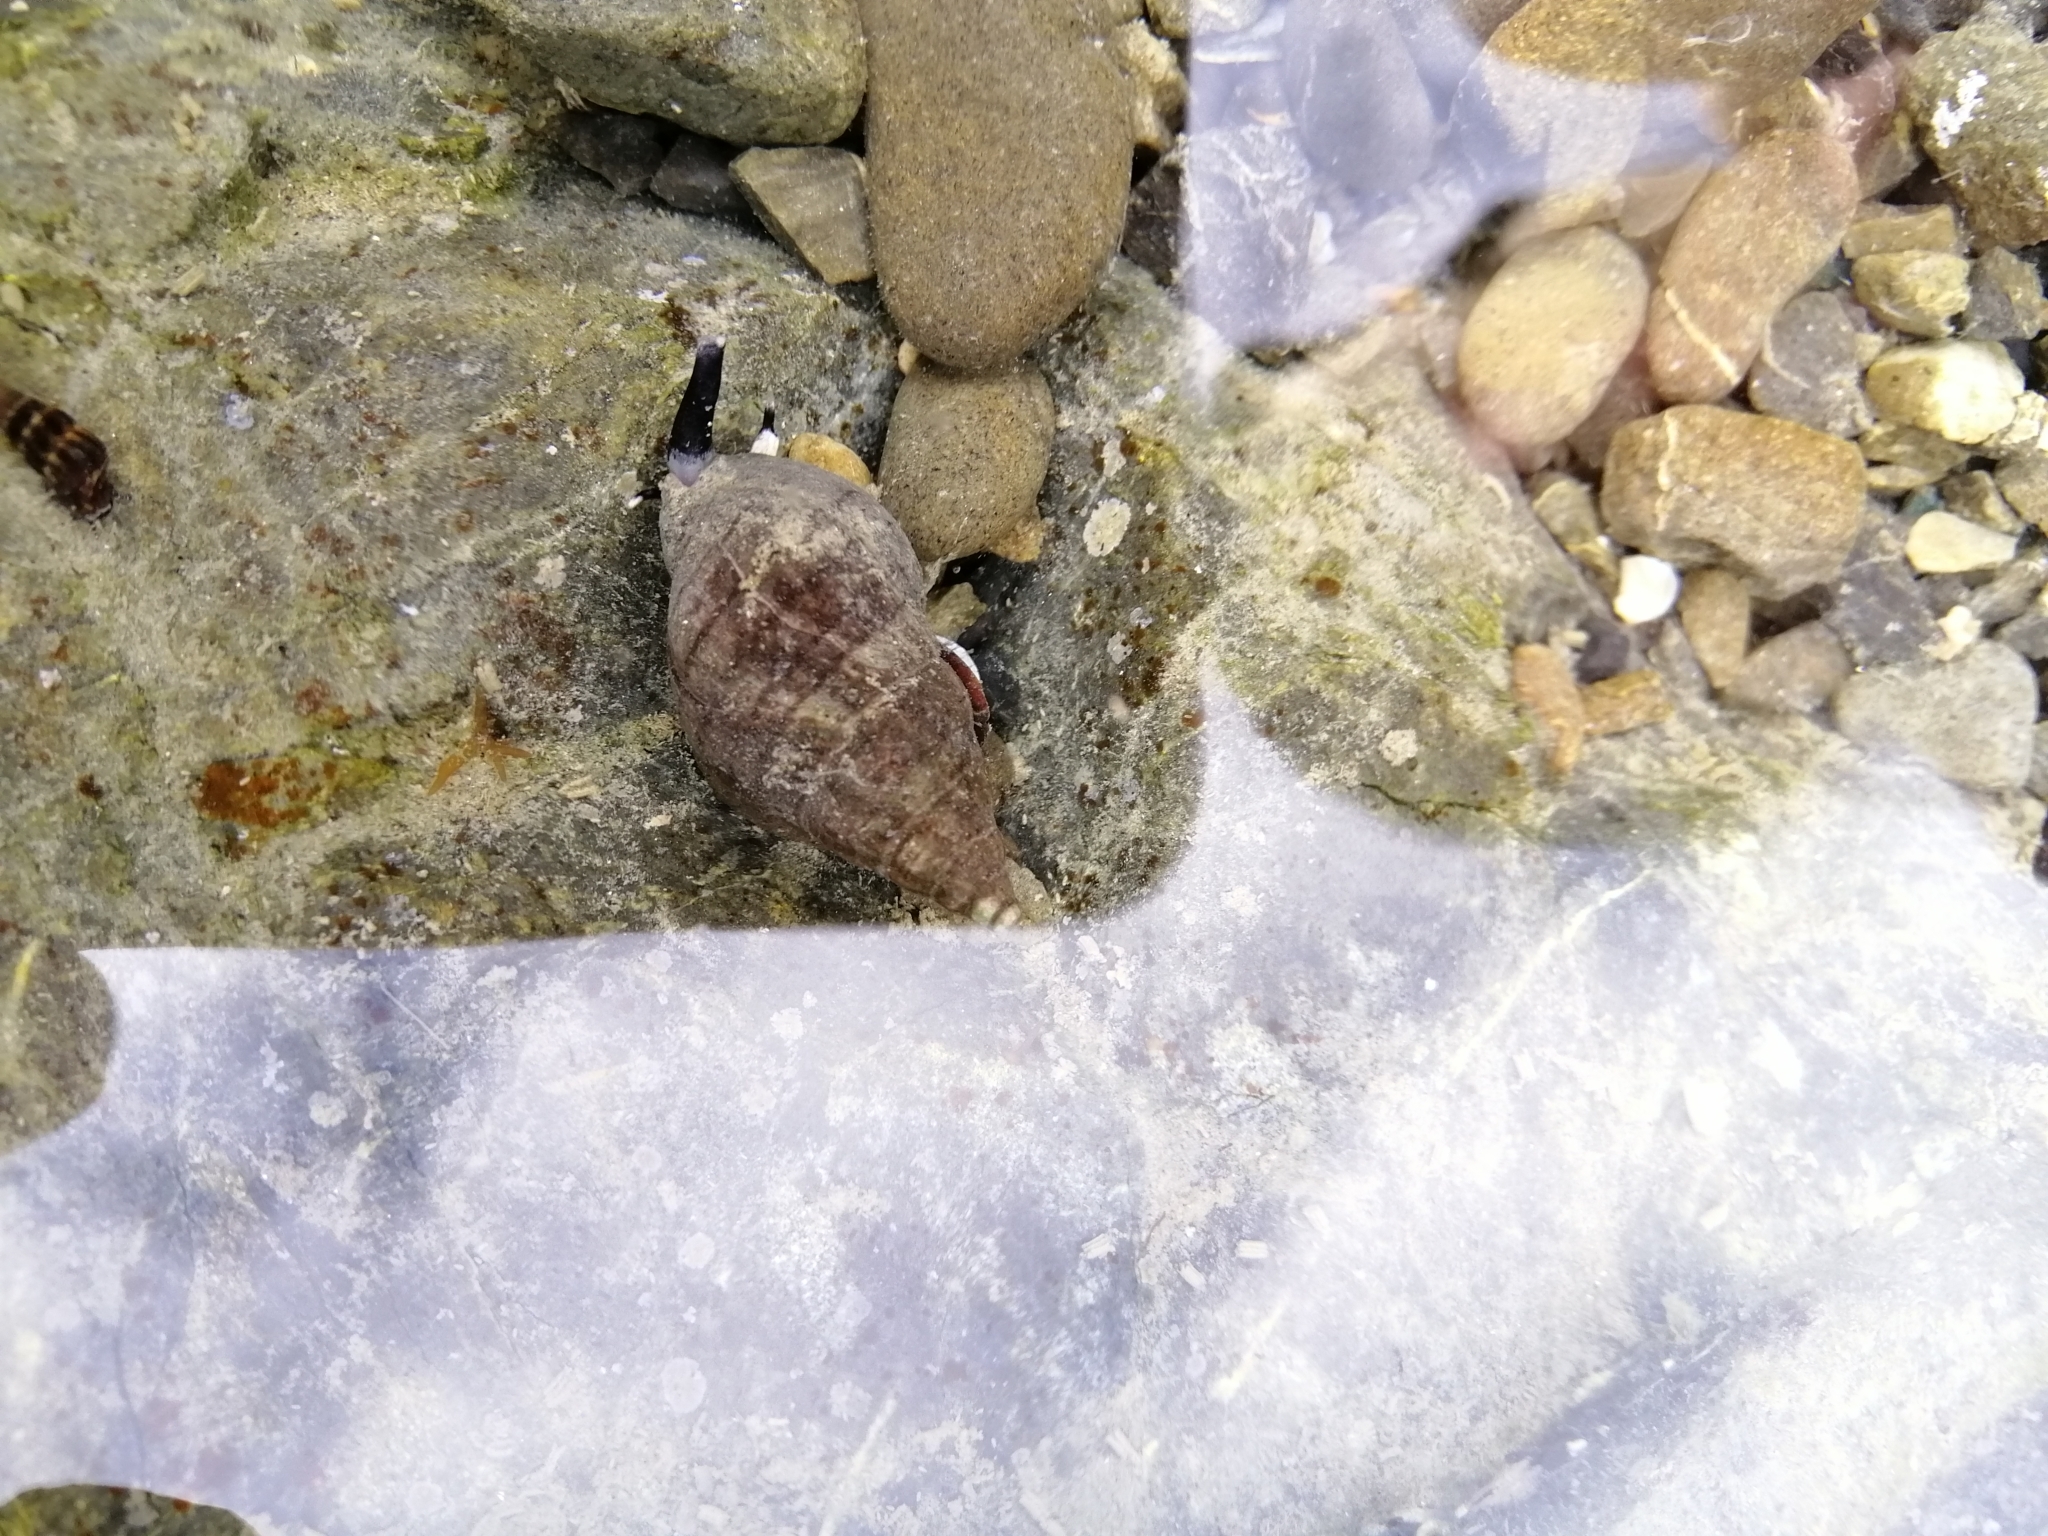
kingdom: Animalia
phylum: Mollusca
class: Gastropoda
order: Neogastropoda
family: Cominellidae
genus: Cominella
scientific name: Cominella virgata
